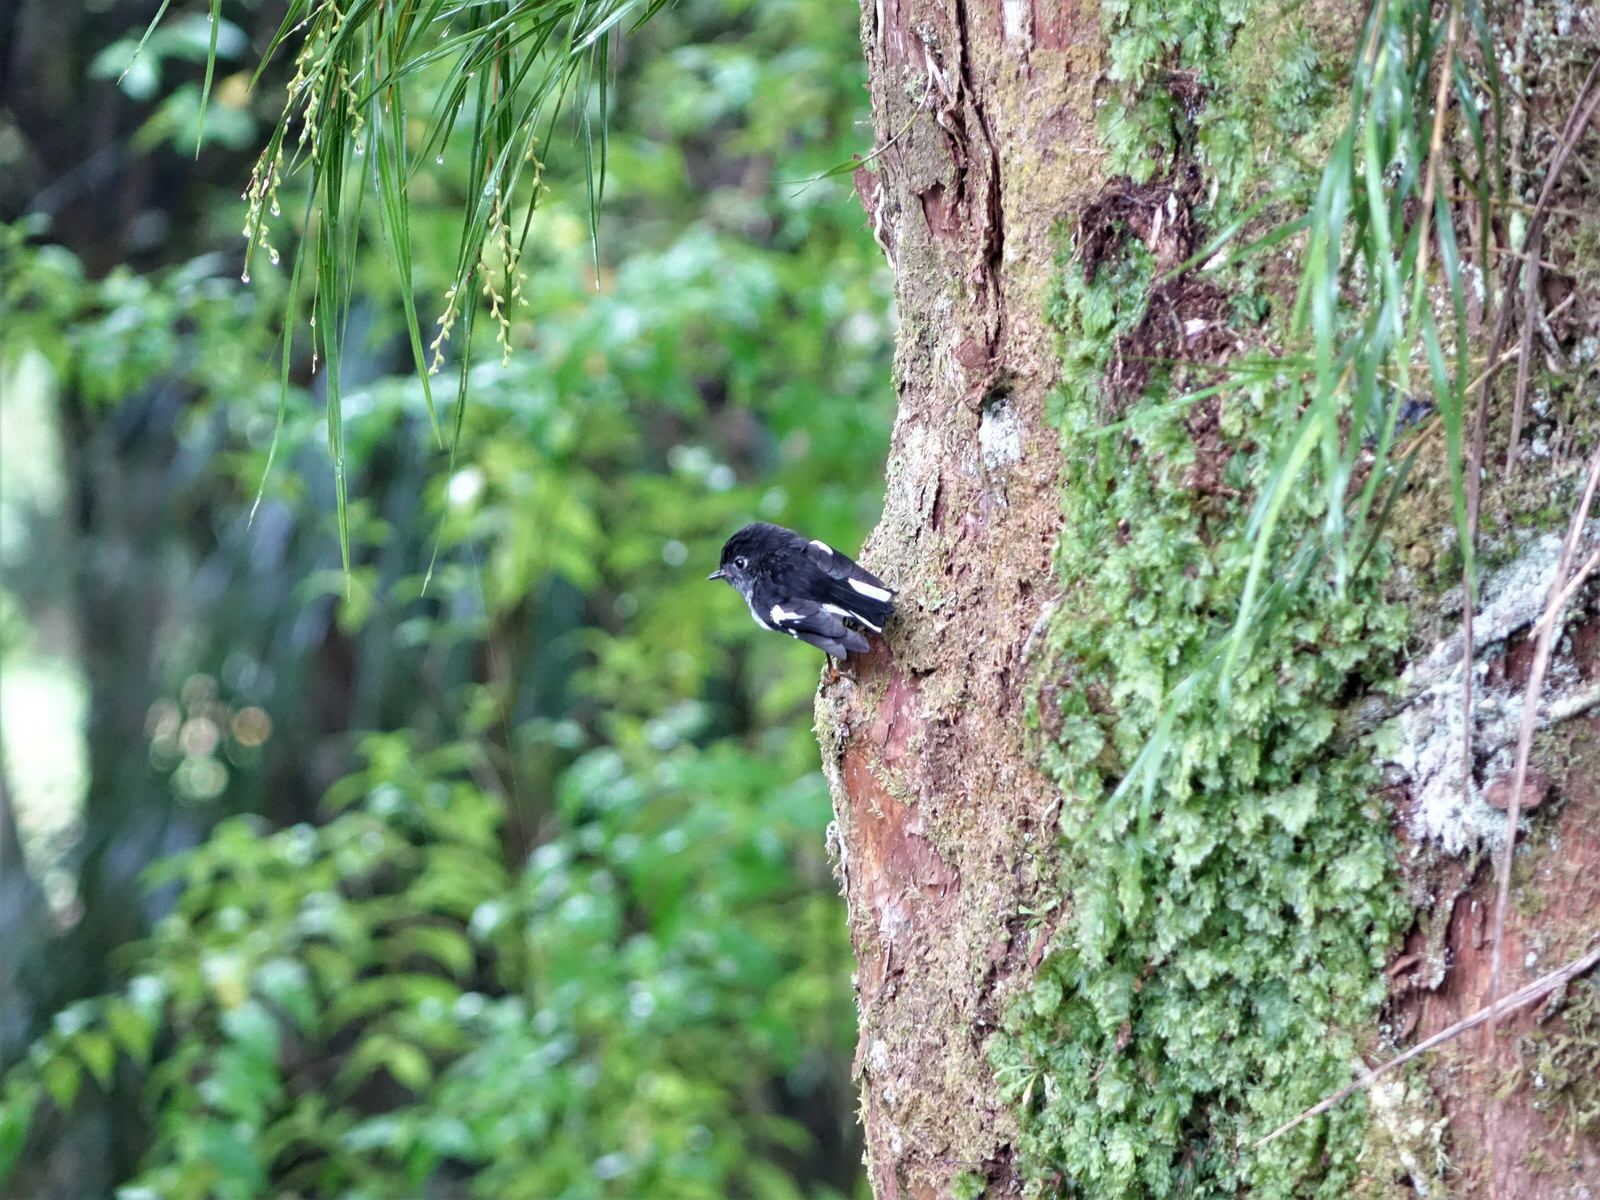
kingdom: Animalia
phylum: Chordata
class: Aves
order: Passeriformes
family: Petroicidae
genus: Petroica
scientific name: Petroica macrocephala
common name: Tomtit
